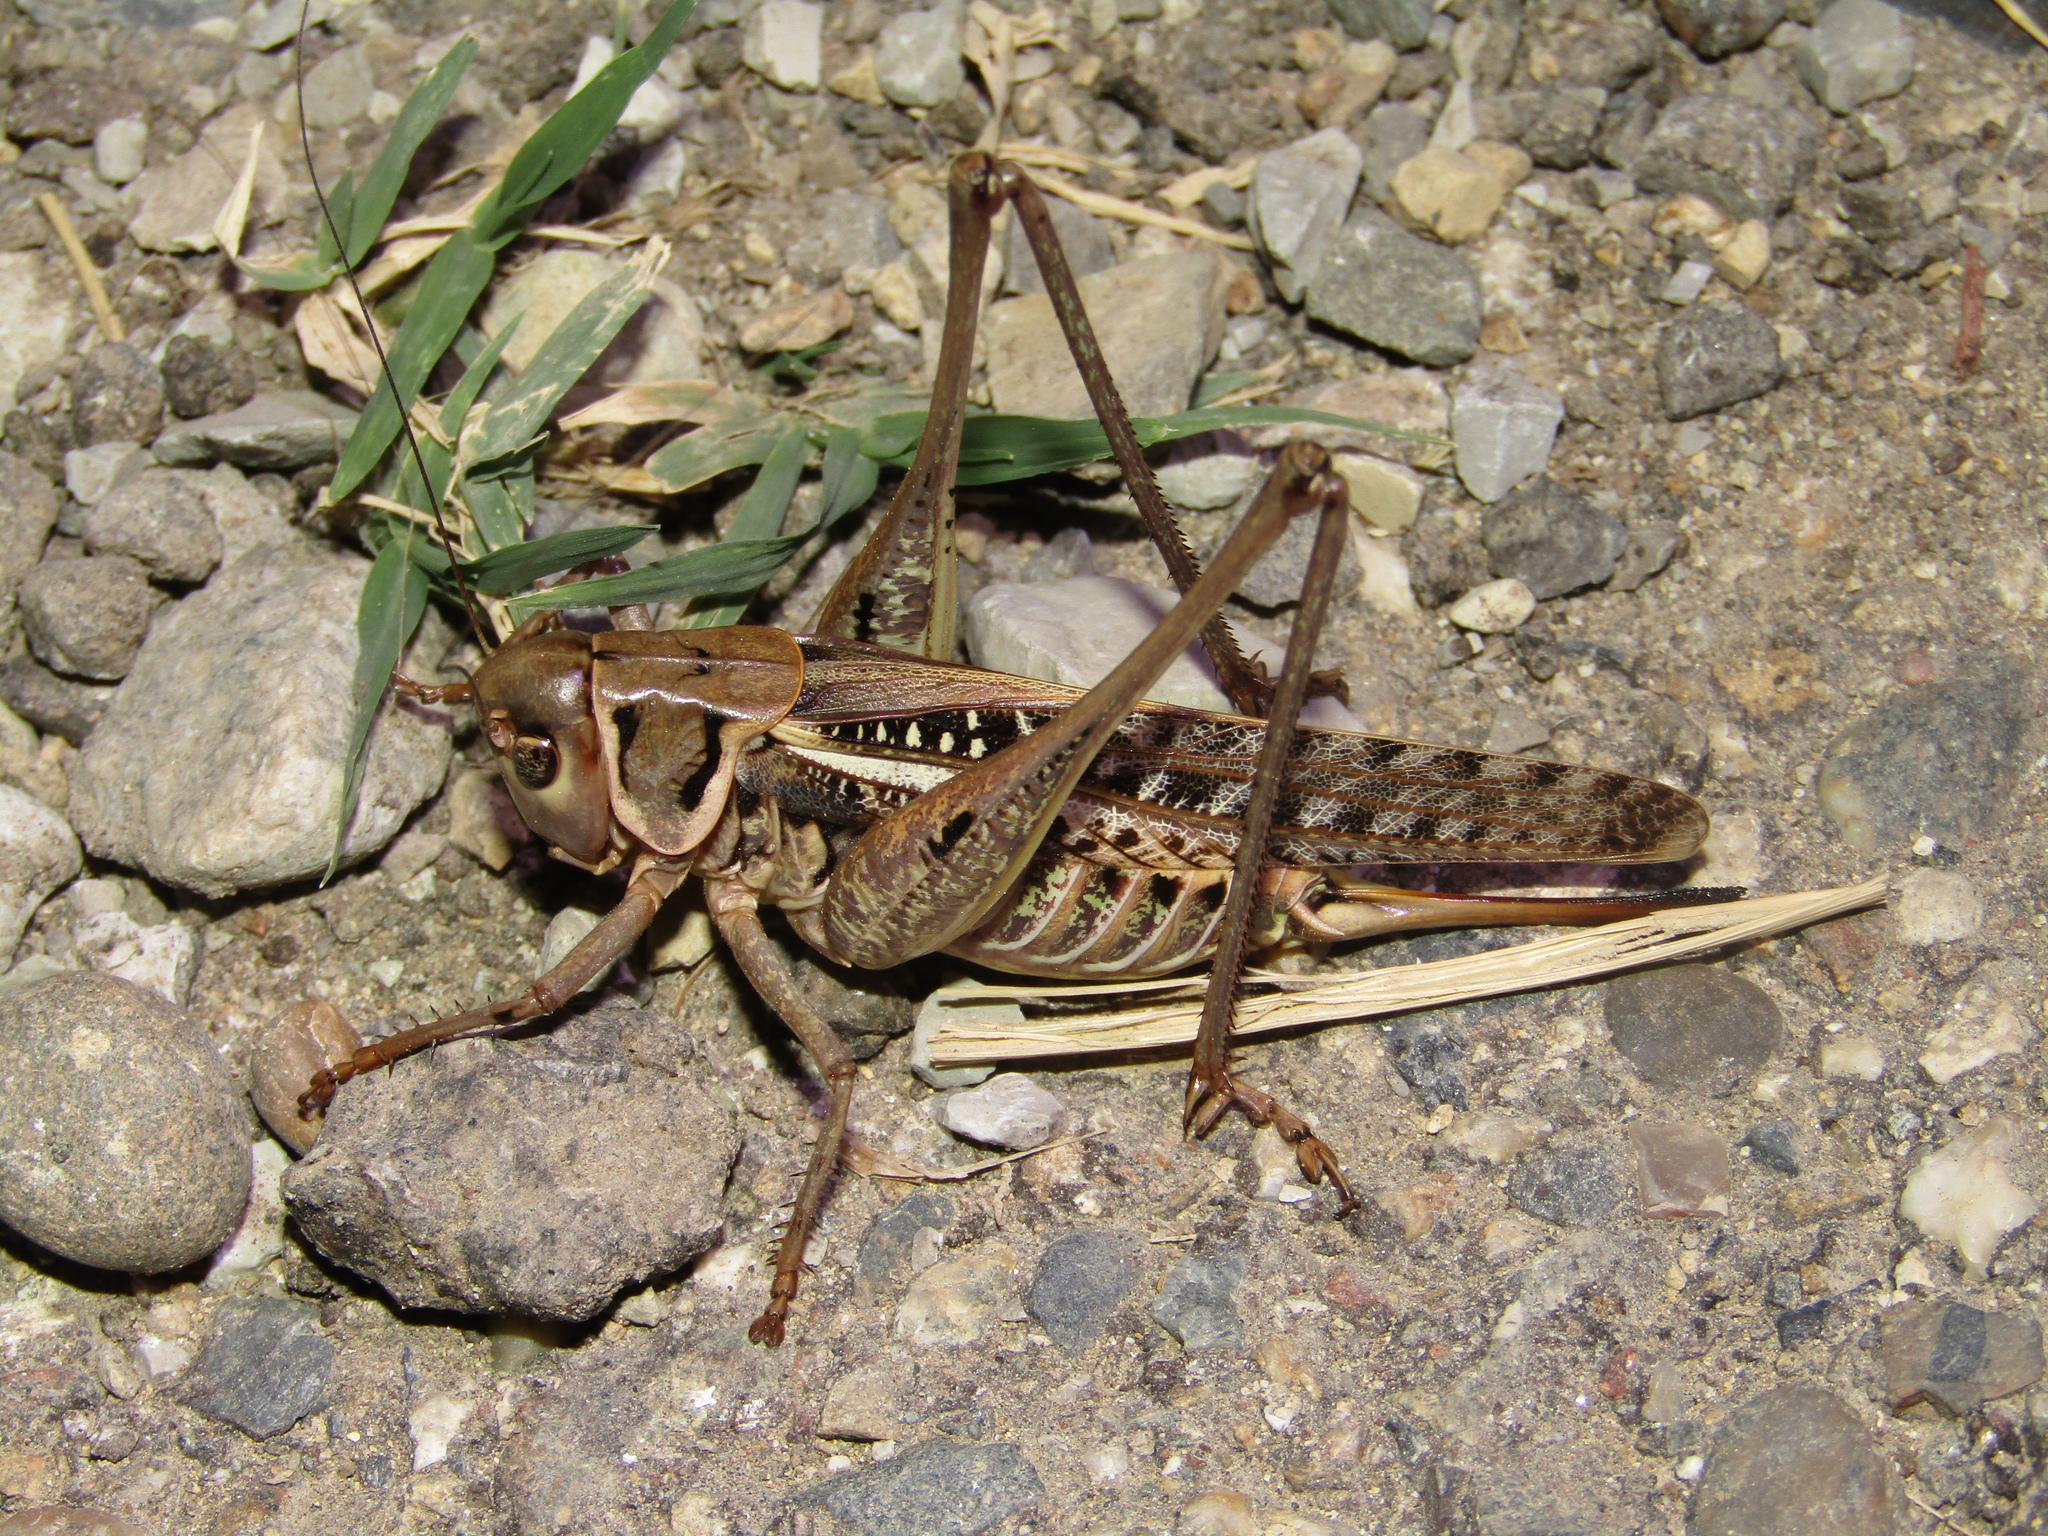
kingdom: Animalia
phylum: Arthropoda
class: Insecta
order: Orthoptera
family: Tettigoniidae
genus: Decticus
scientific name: Decticus albifrons
